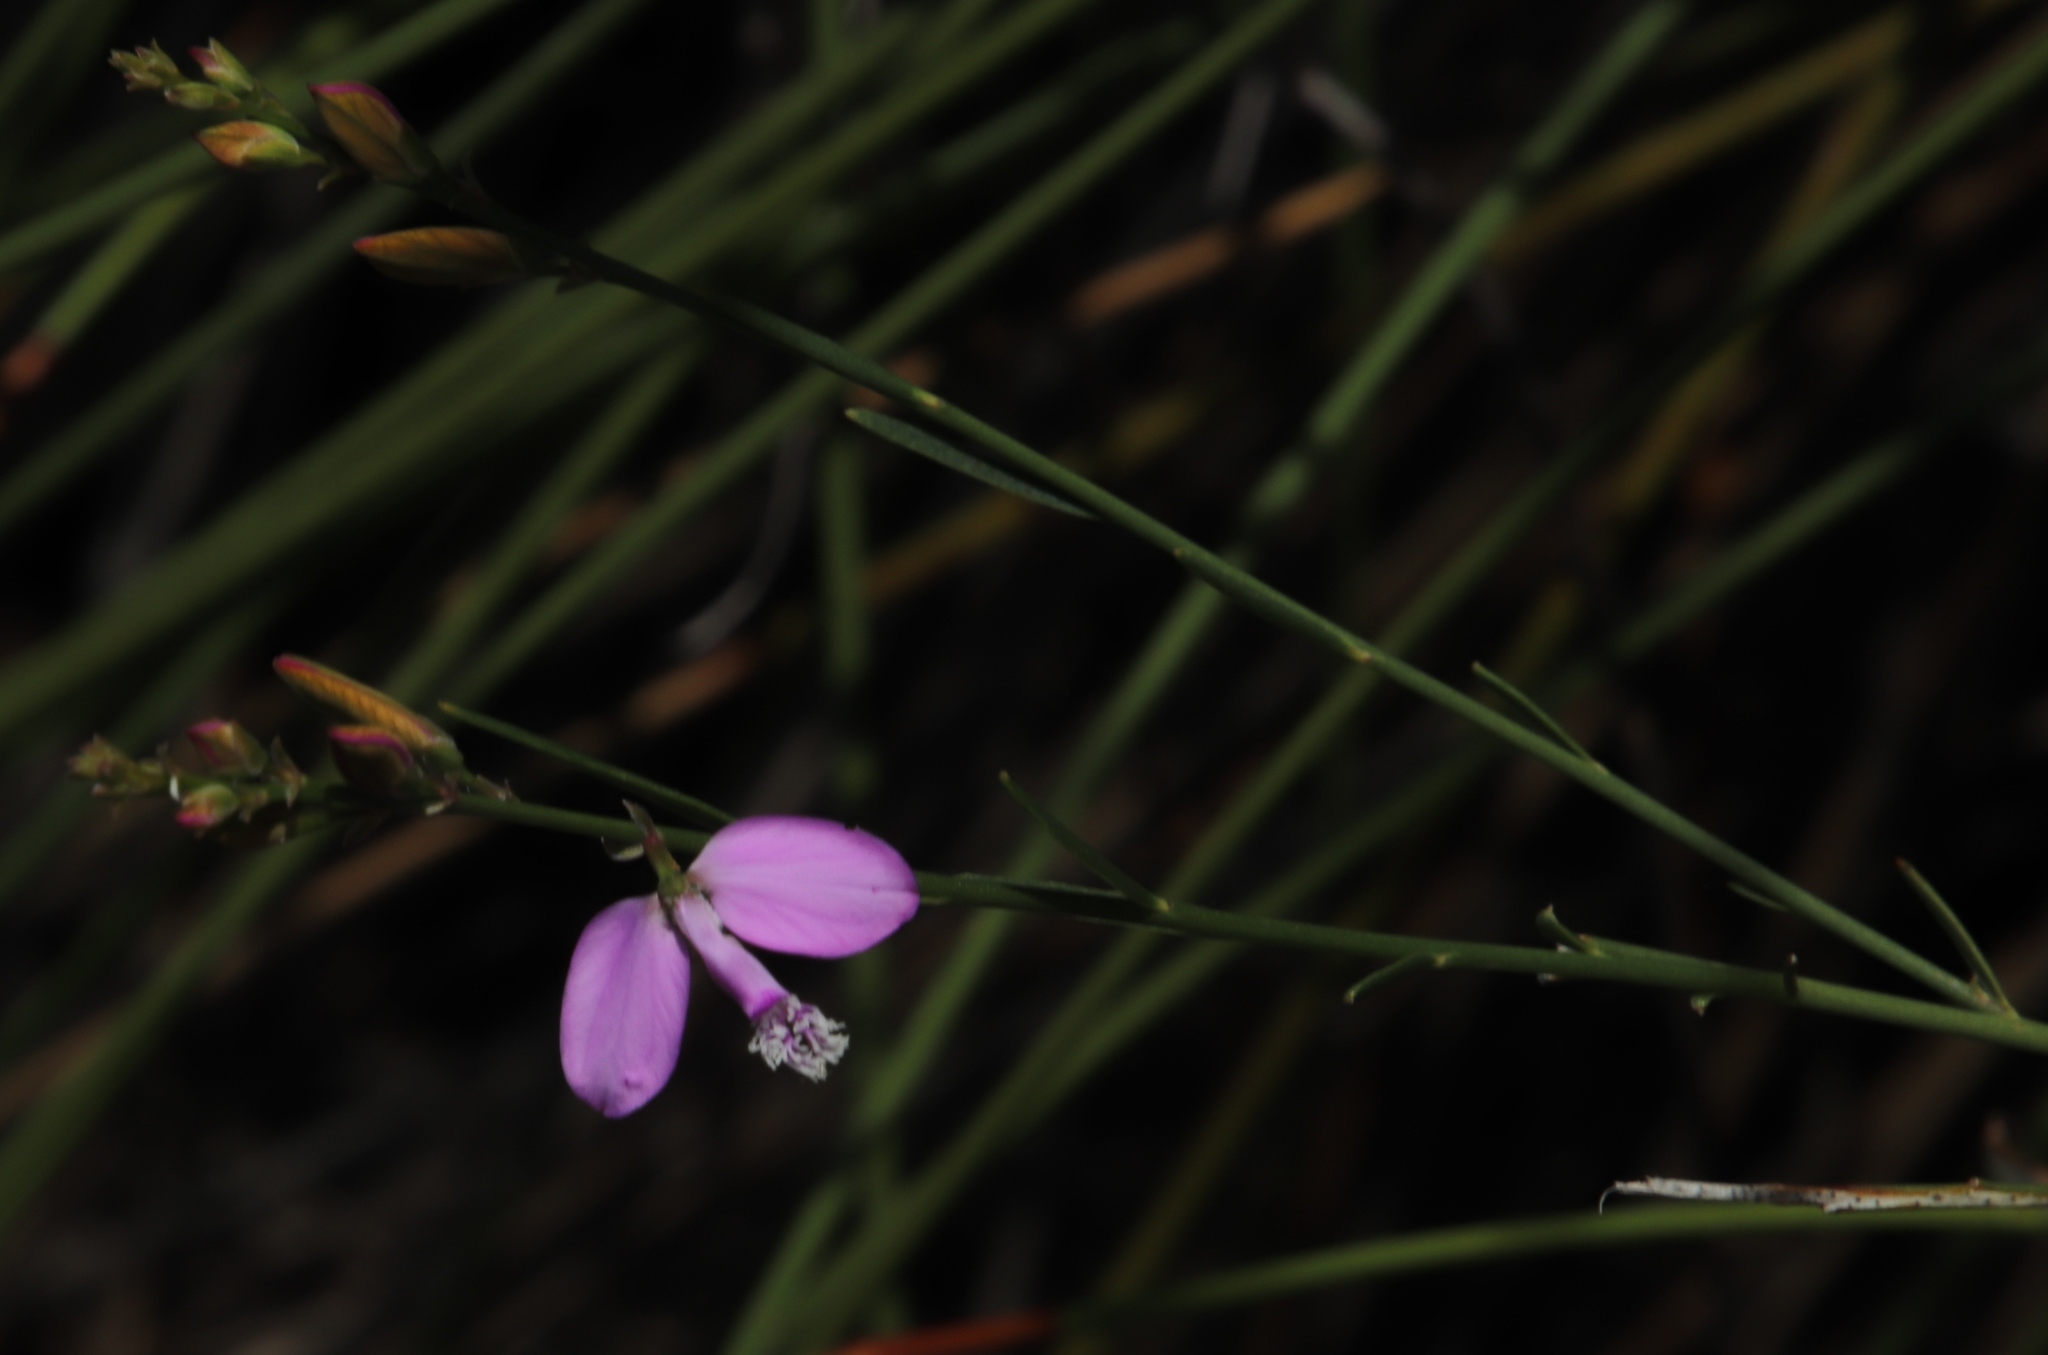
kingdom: Plantae
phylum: Tracheophyta
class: Magnoliopsida
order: Fabales
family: Polygalaceae
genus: Polygala
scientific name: Polygala garcini
